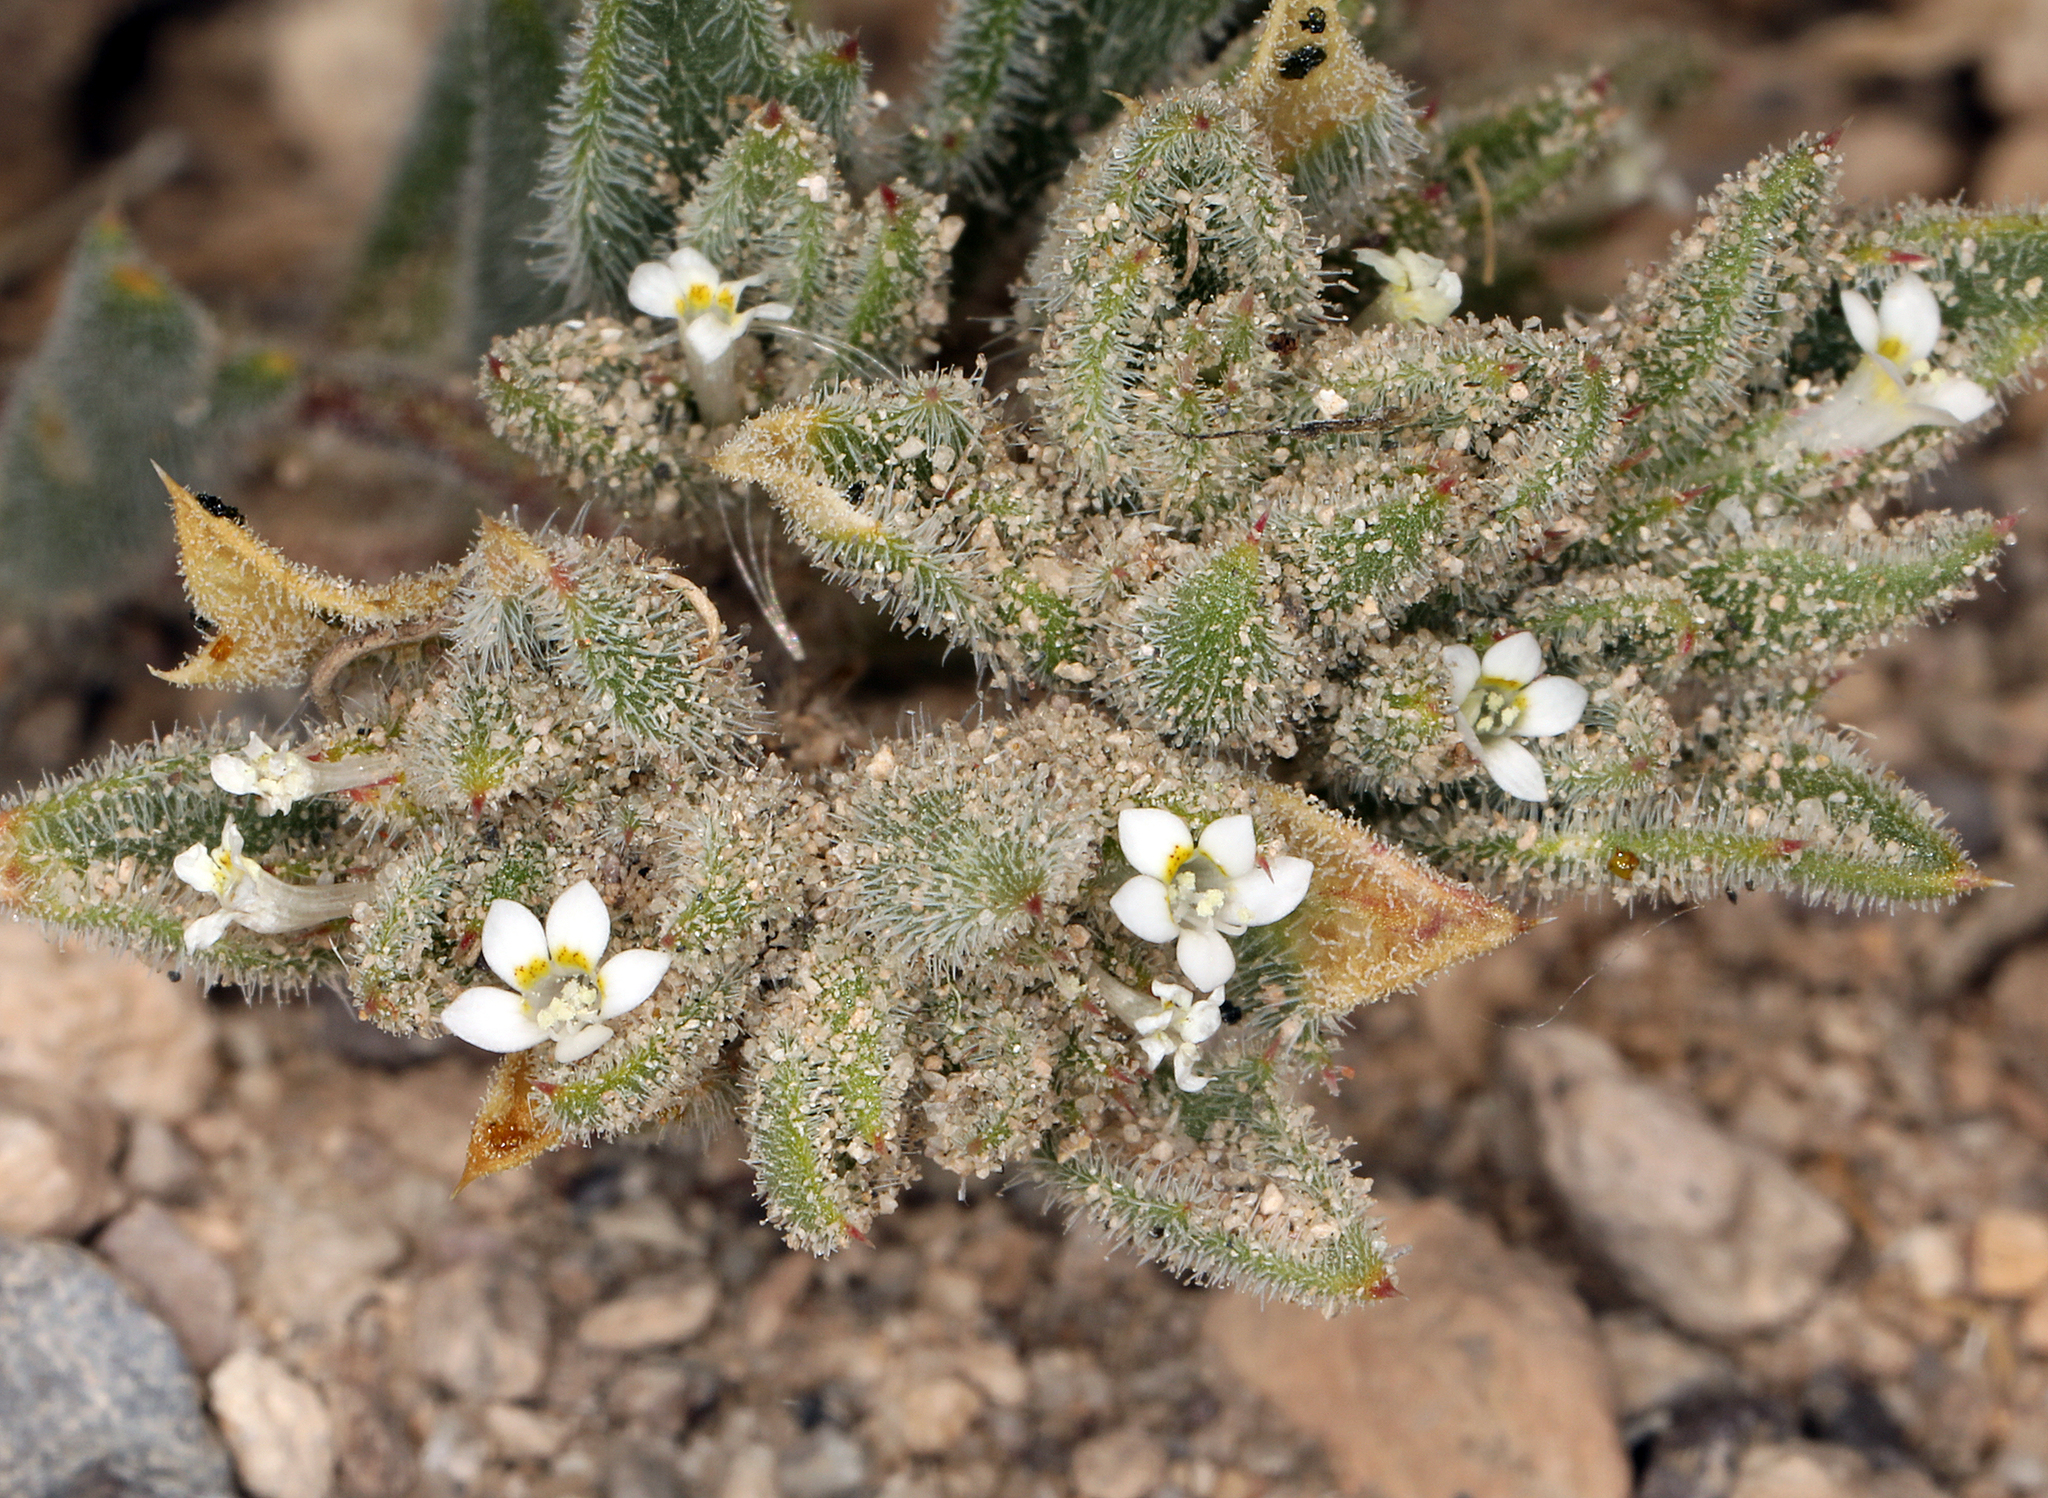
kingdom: Plantae
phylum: Tracheophyta
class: Magnoliopsida
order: Ericales
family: Polemoniaceae
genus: Loeseliastrum
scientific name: Loeseliastrum depressum
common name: Depressed ipomopsis
